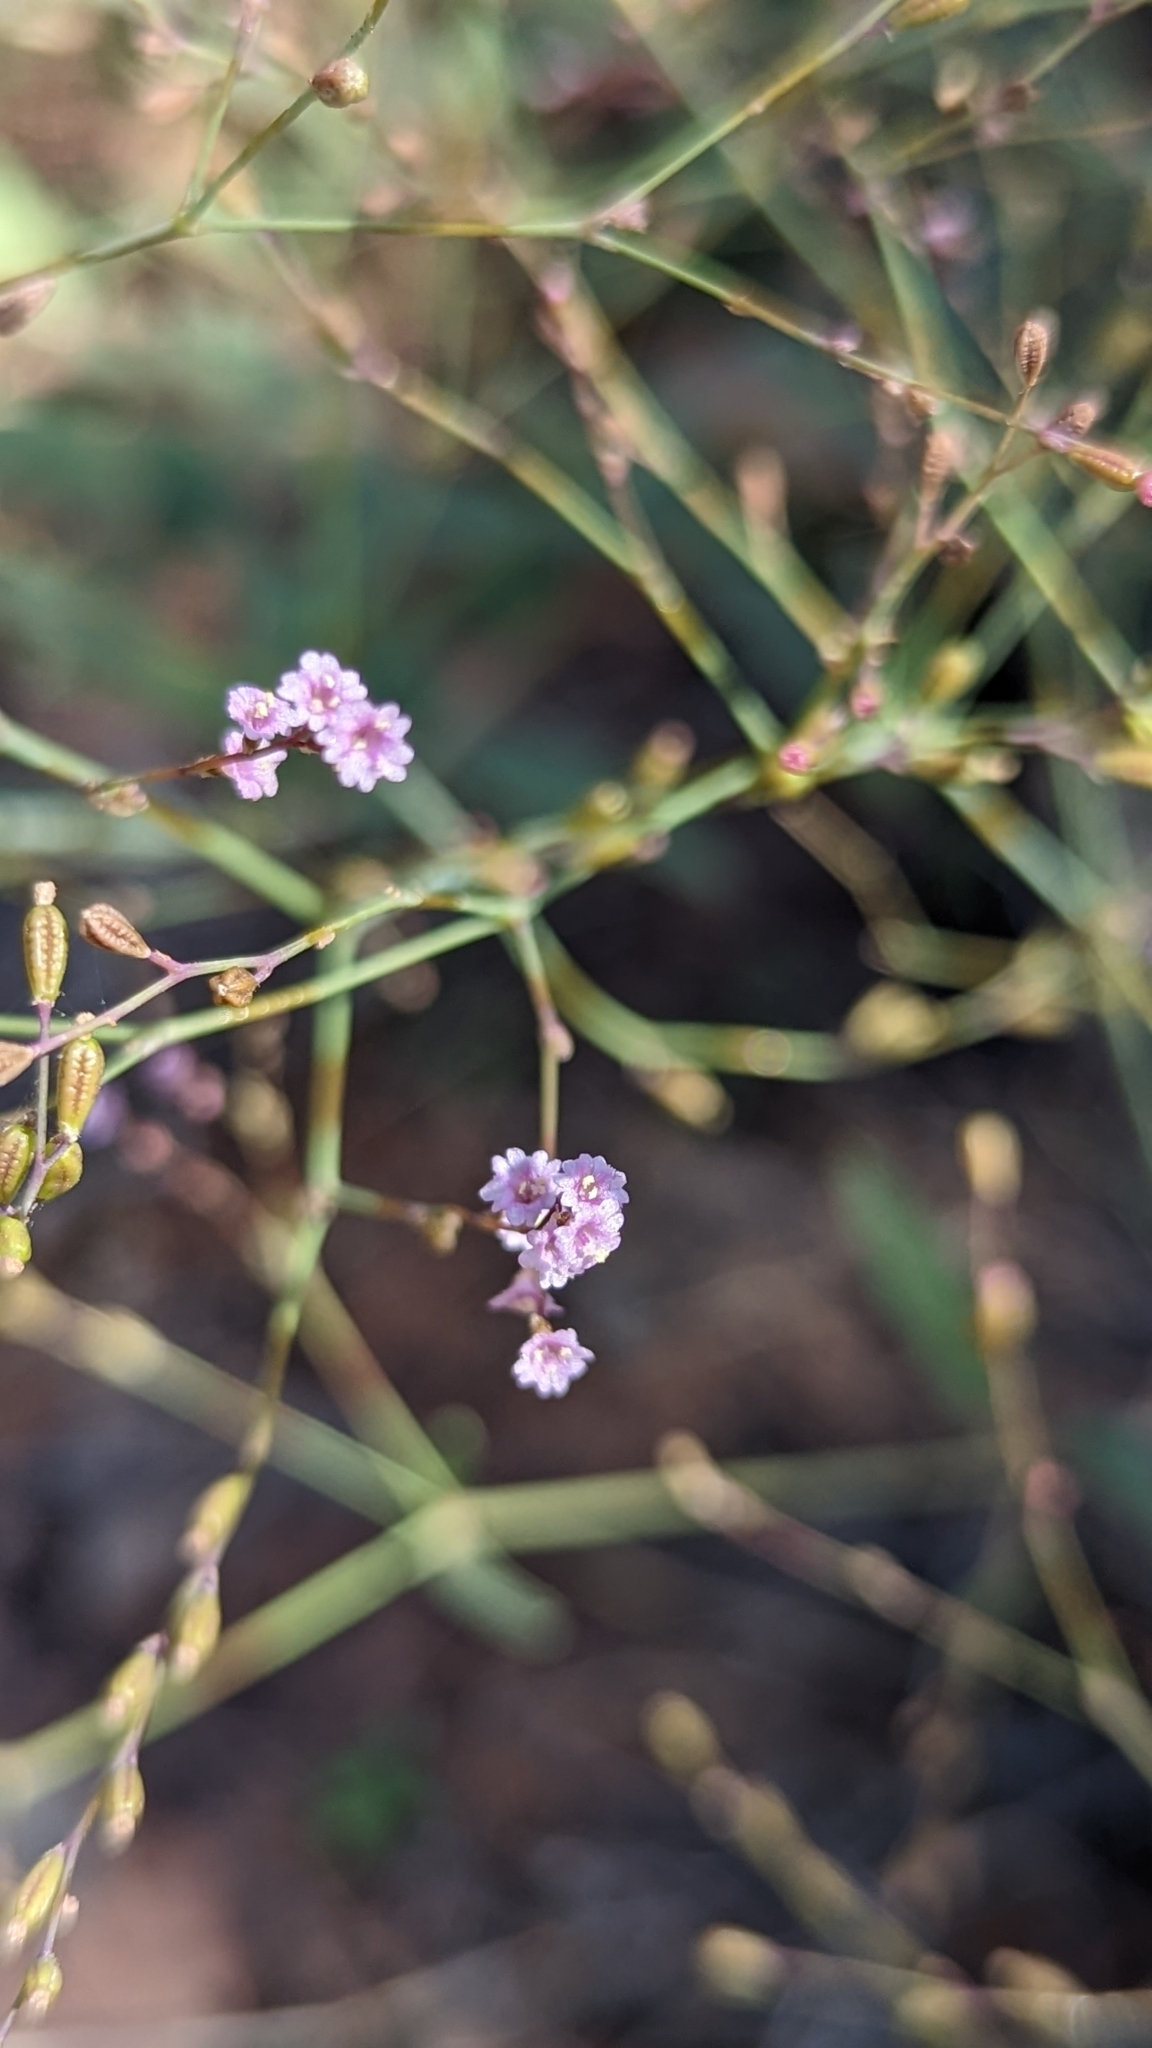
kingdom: Plantae
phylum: Tracheophyta
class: Magnoliopsida
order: Caryophyllales
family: Nyctaginaceae
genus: Boerhavia
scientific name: Boerhavia torreyana
